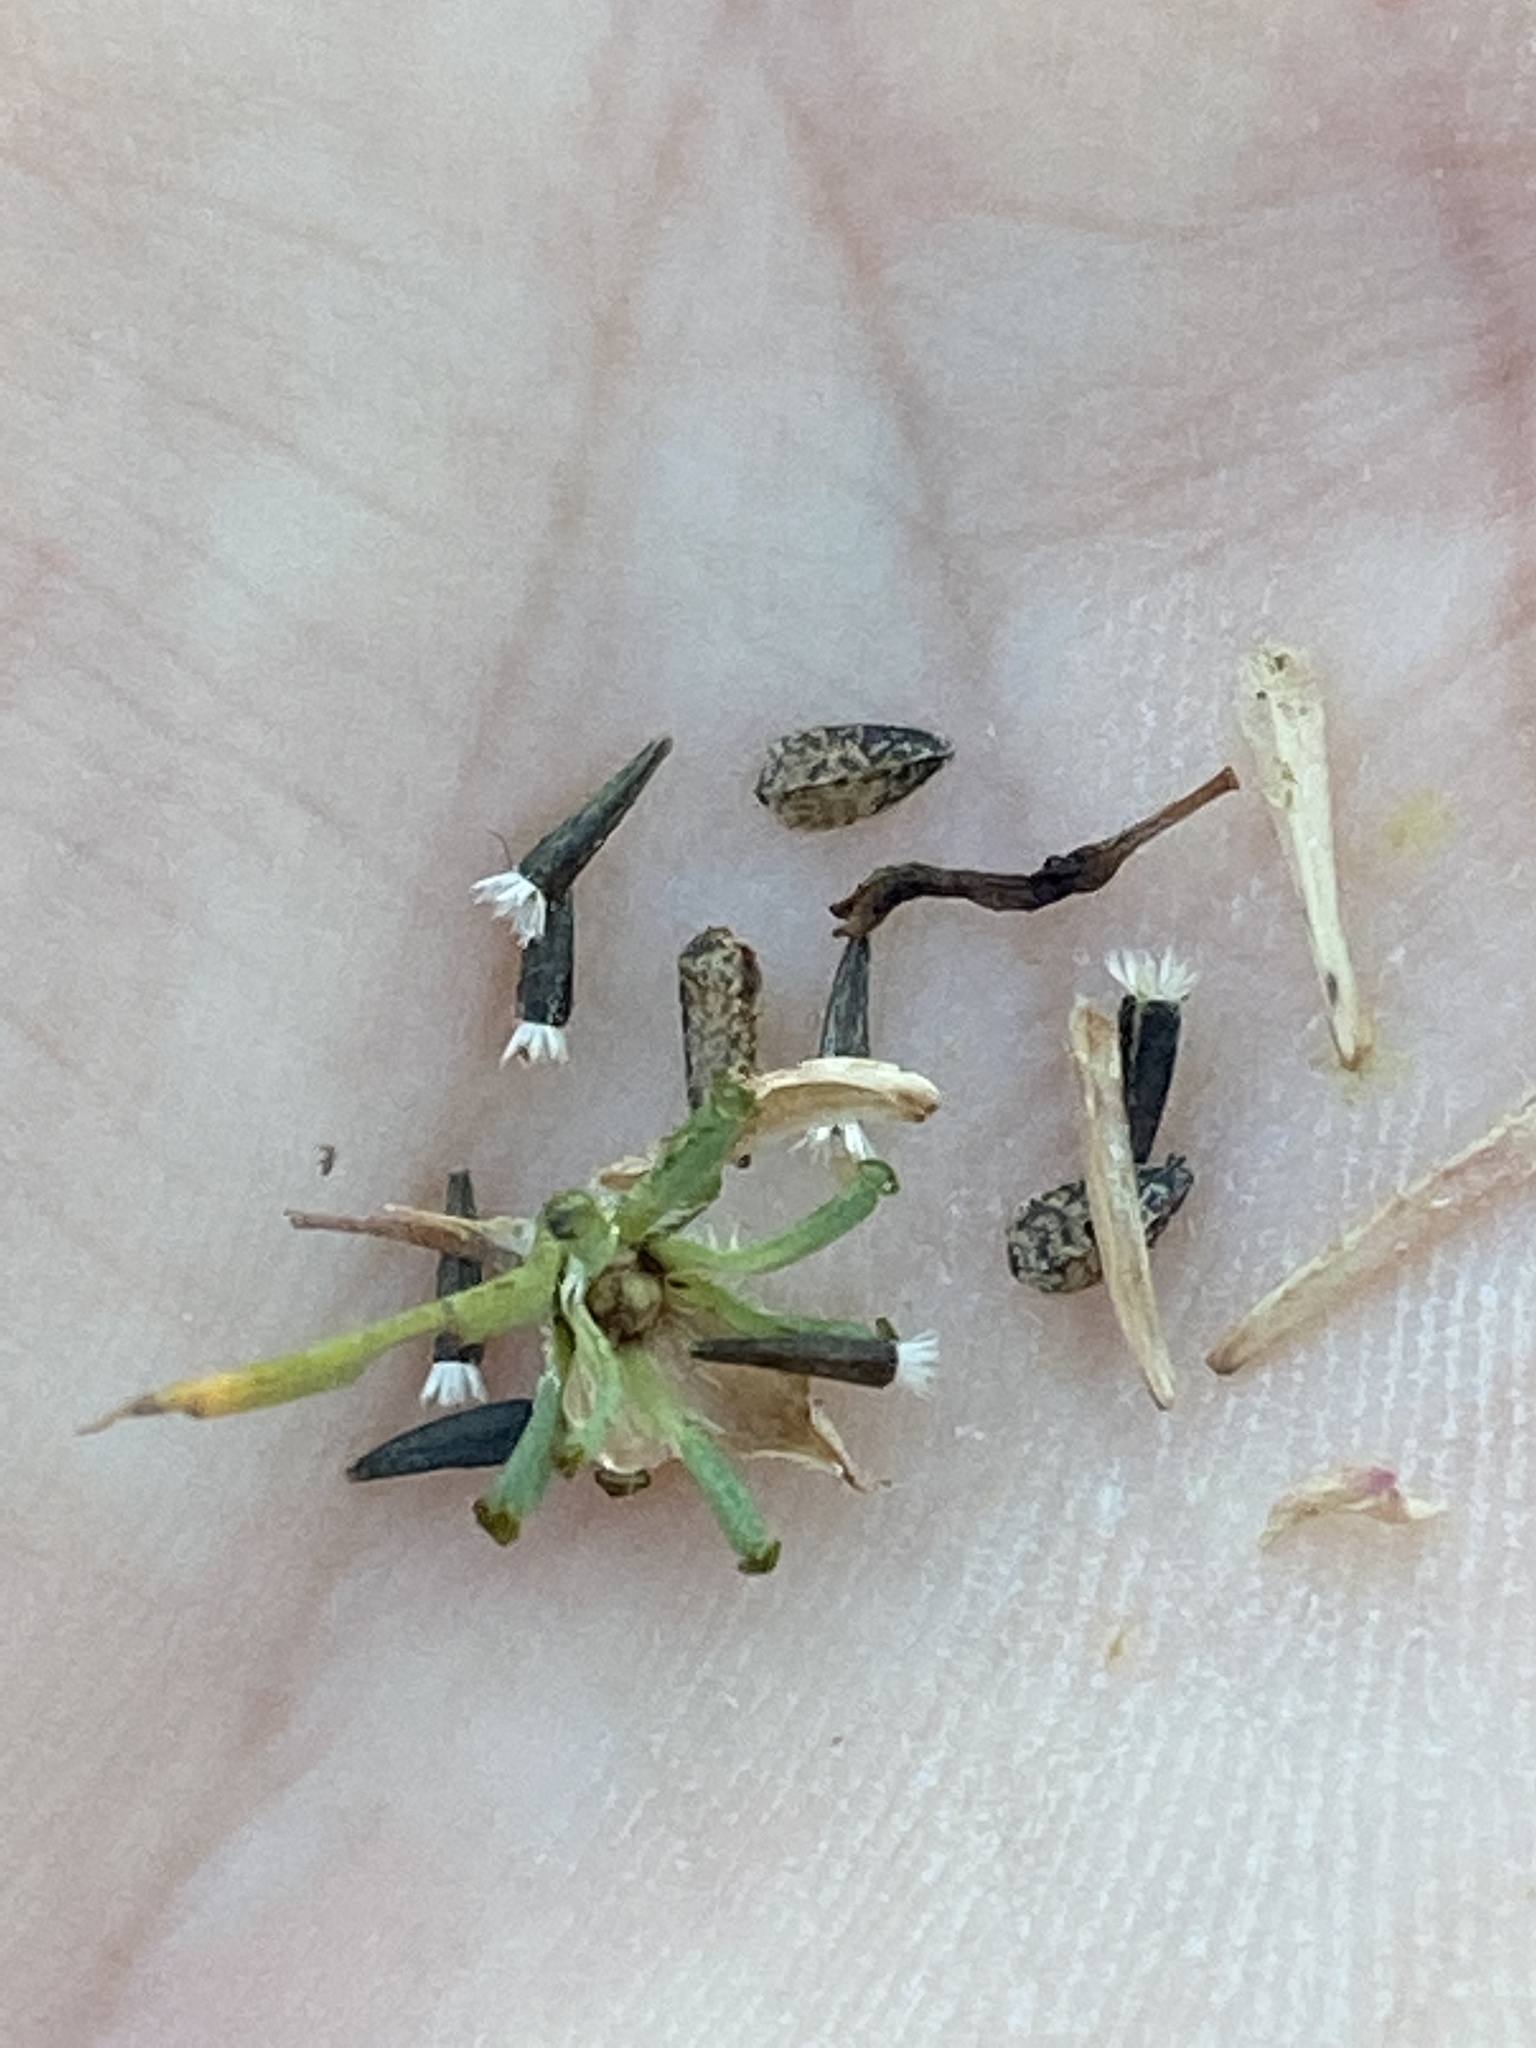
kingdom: Plantae
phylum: Tracheophyta
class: Magnoliopsida
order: Asterales
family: Asteraceae
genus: Calycadenia
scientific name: Calycadenia truncata
